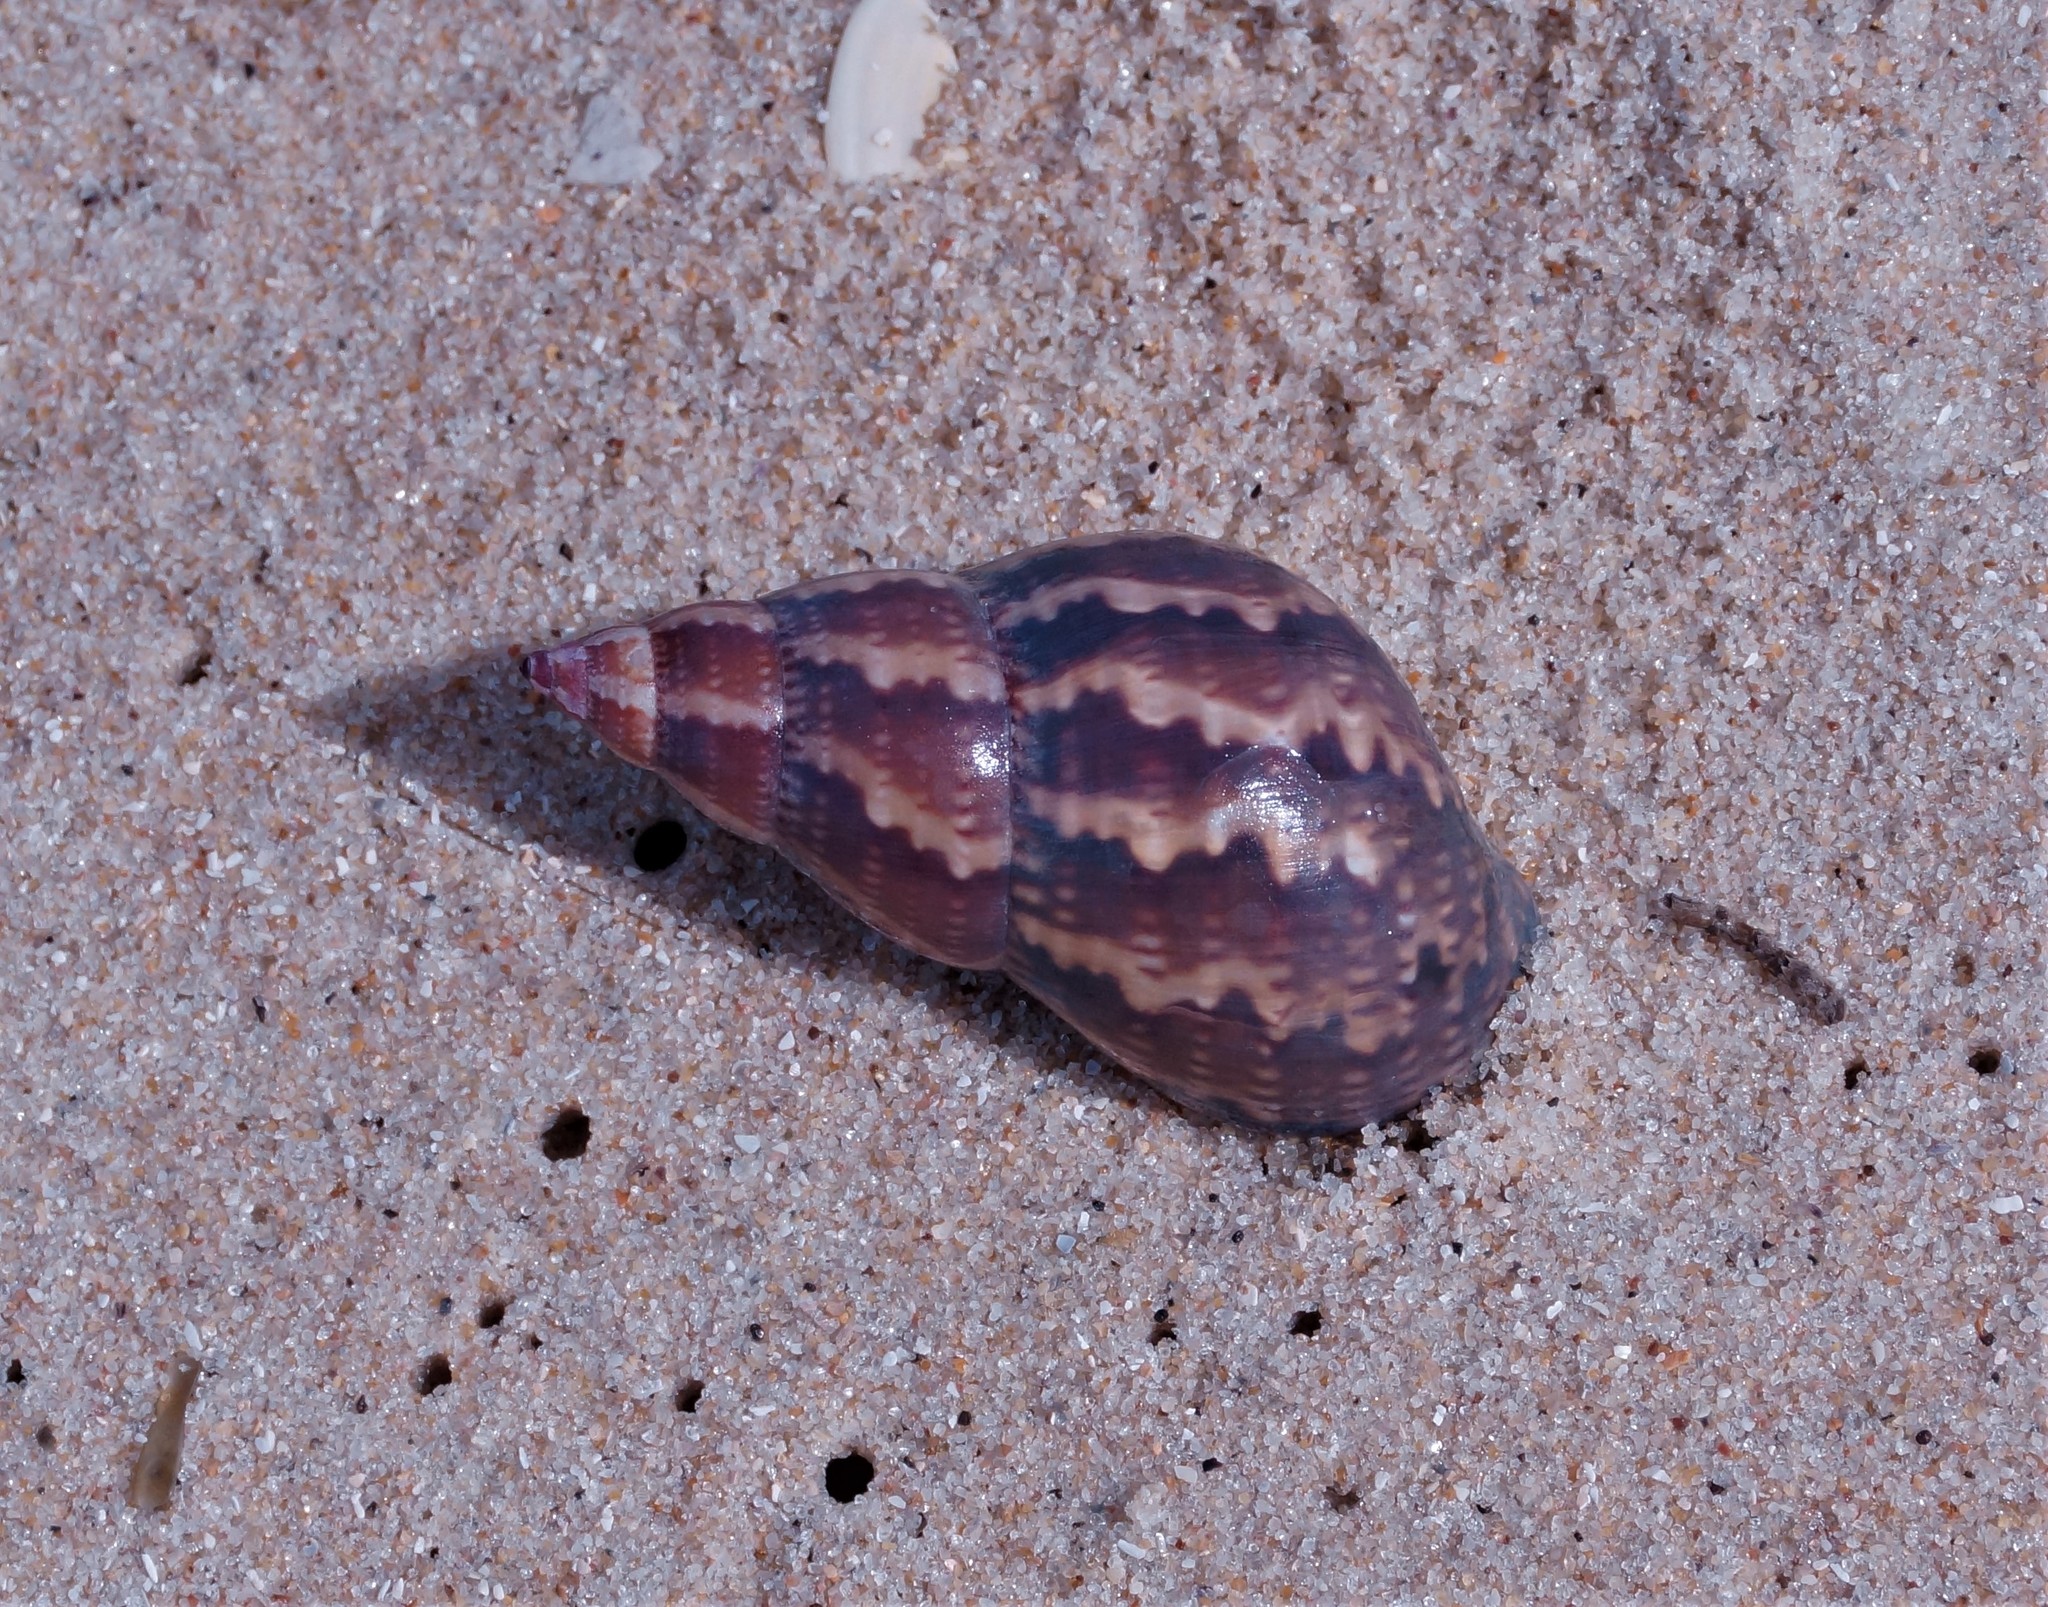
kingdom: Animalia
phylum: Mollusca
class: Gastropoda
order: Trochida
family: Phasianellidae
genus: Phasianella
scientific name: Phasianella australis
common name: Painted lady
